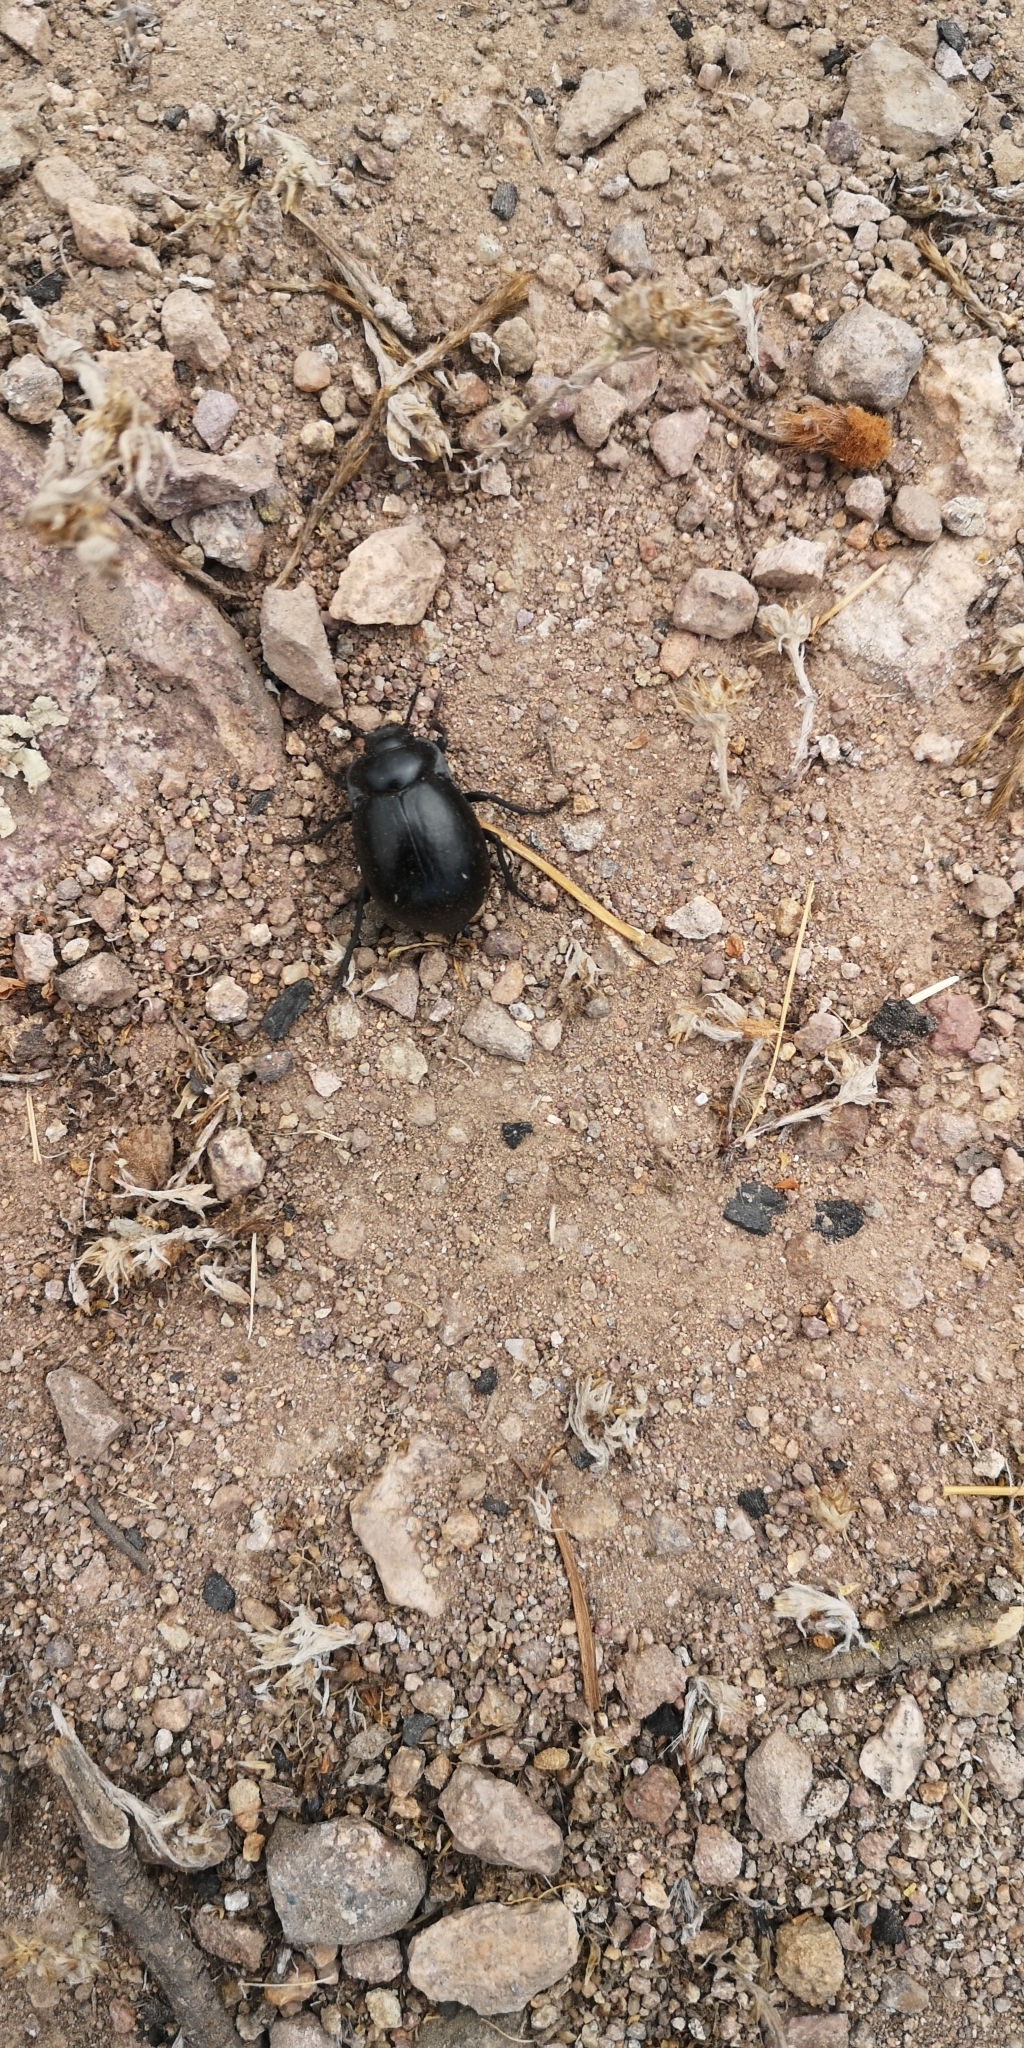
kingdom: Animalia
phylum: Arthropoda
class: Insecta
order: Coleoptera
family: Tenebrionidae
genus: Gyriosomus
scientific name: Gyriosomus
